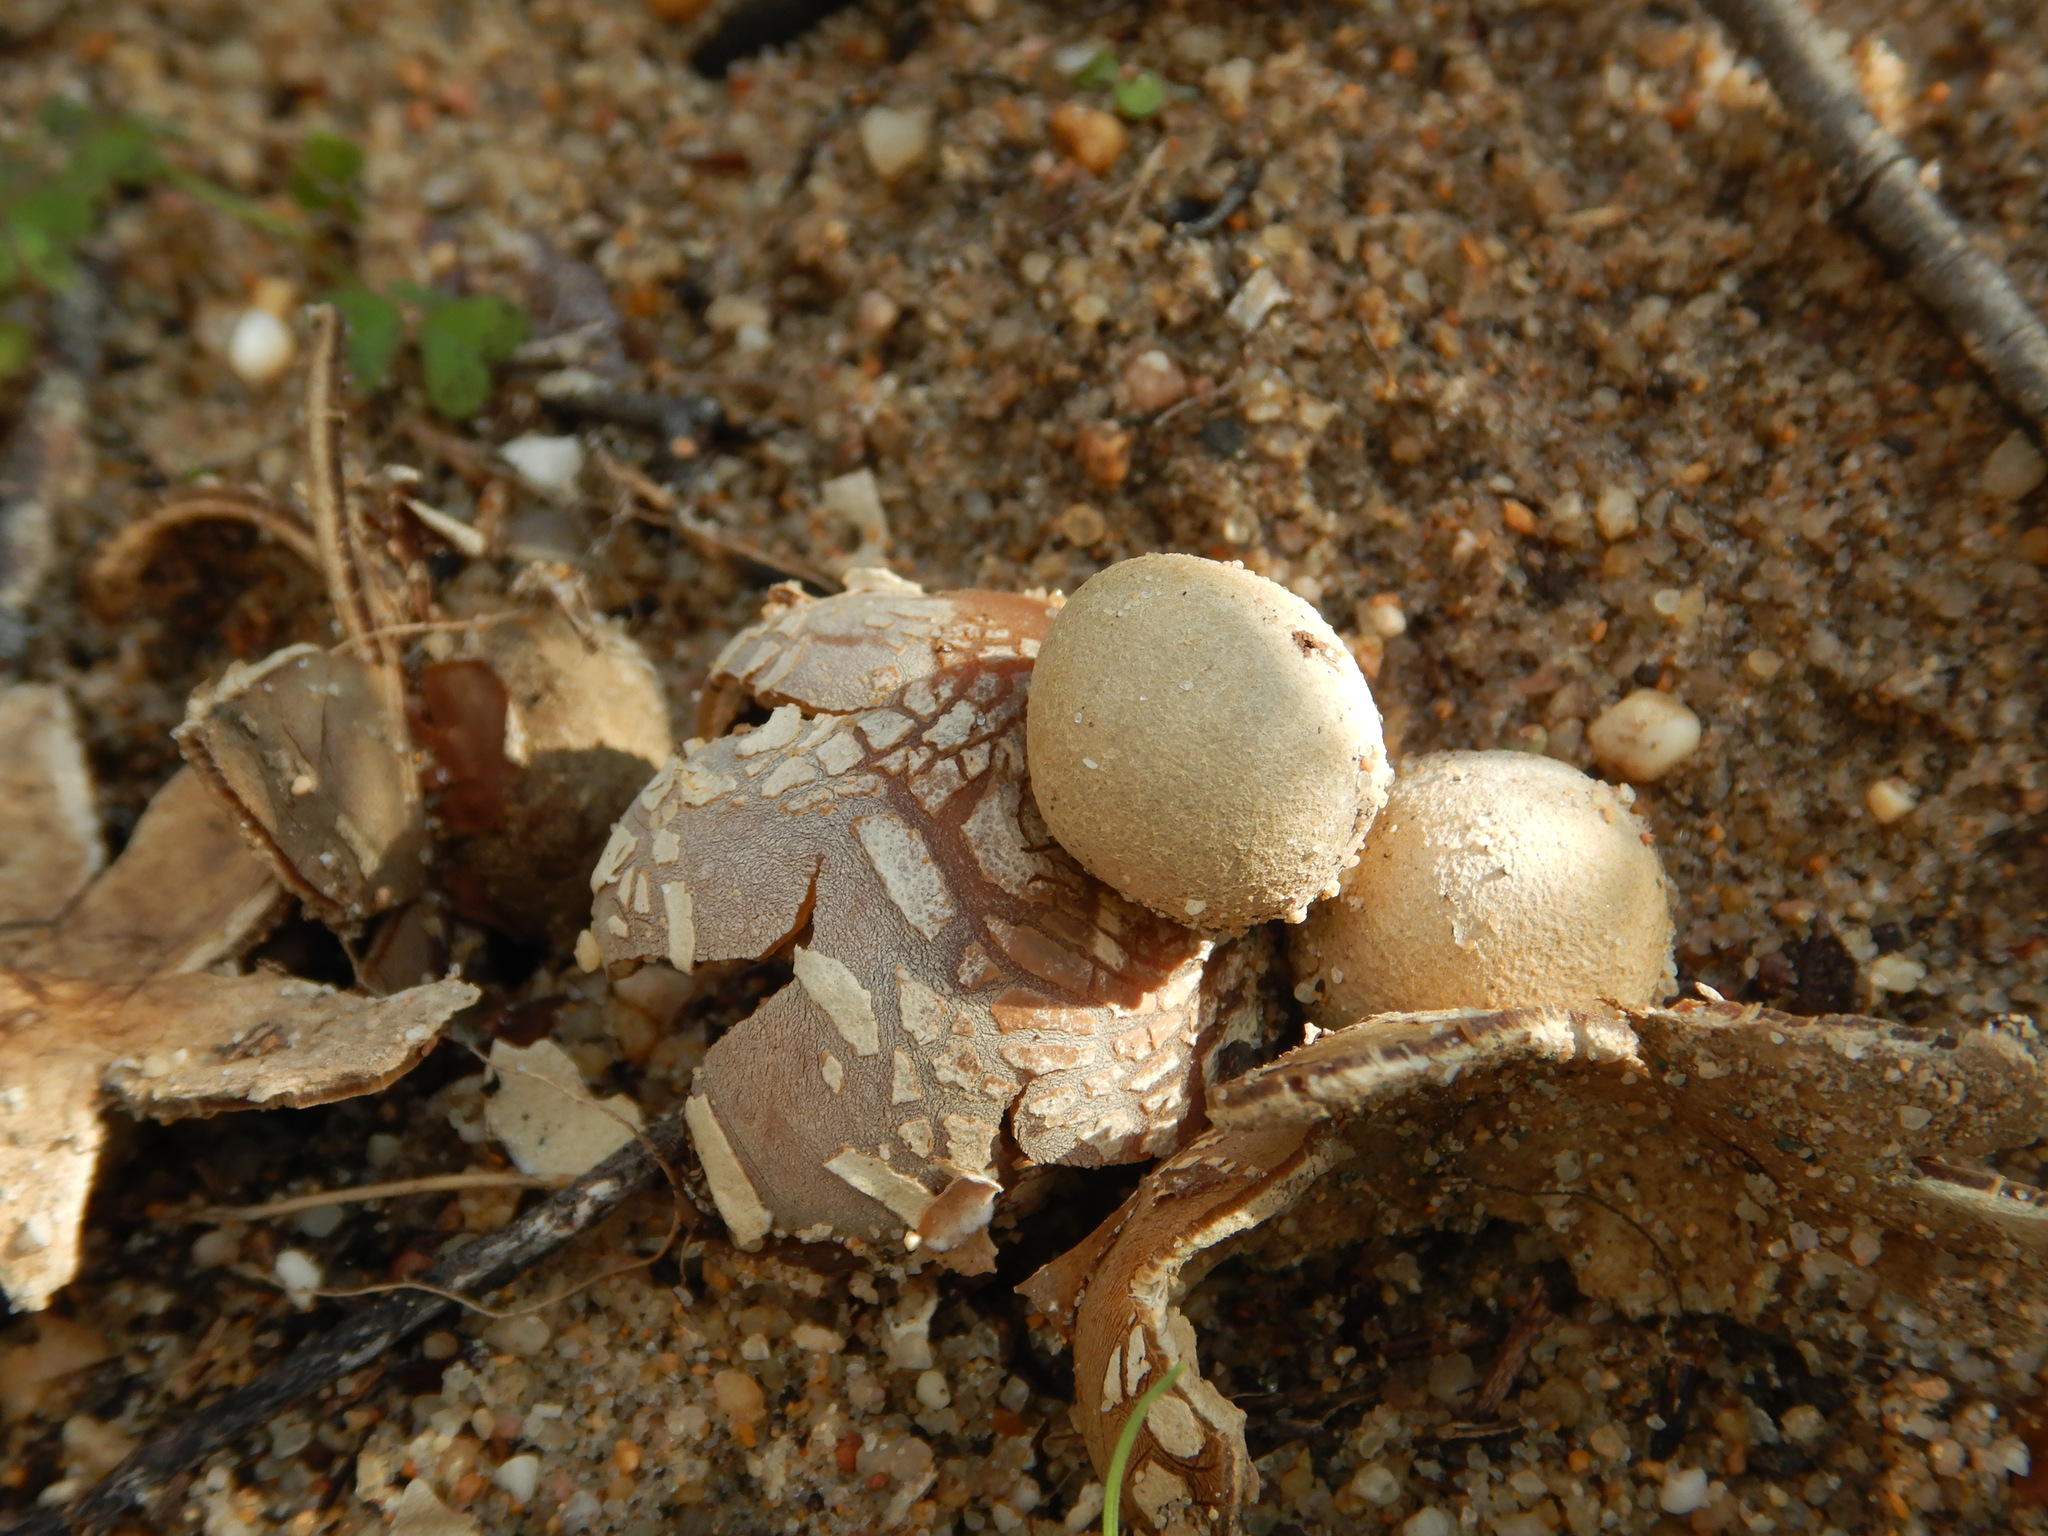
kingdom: Fungi
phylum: Basidiomycota
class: Agaricomycetes
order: Boletales
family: Diplocystidiaceae
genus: Astraeus
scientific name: Astraeus hygrometricus
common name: Barometer earthstar
